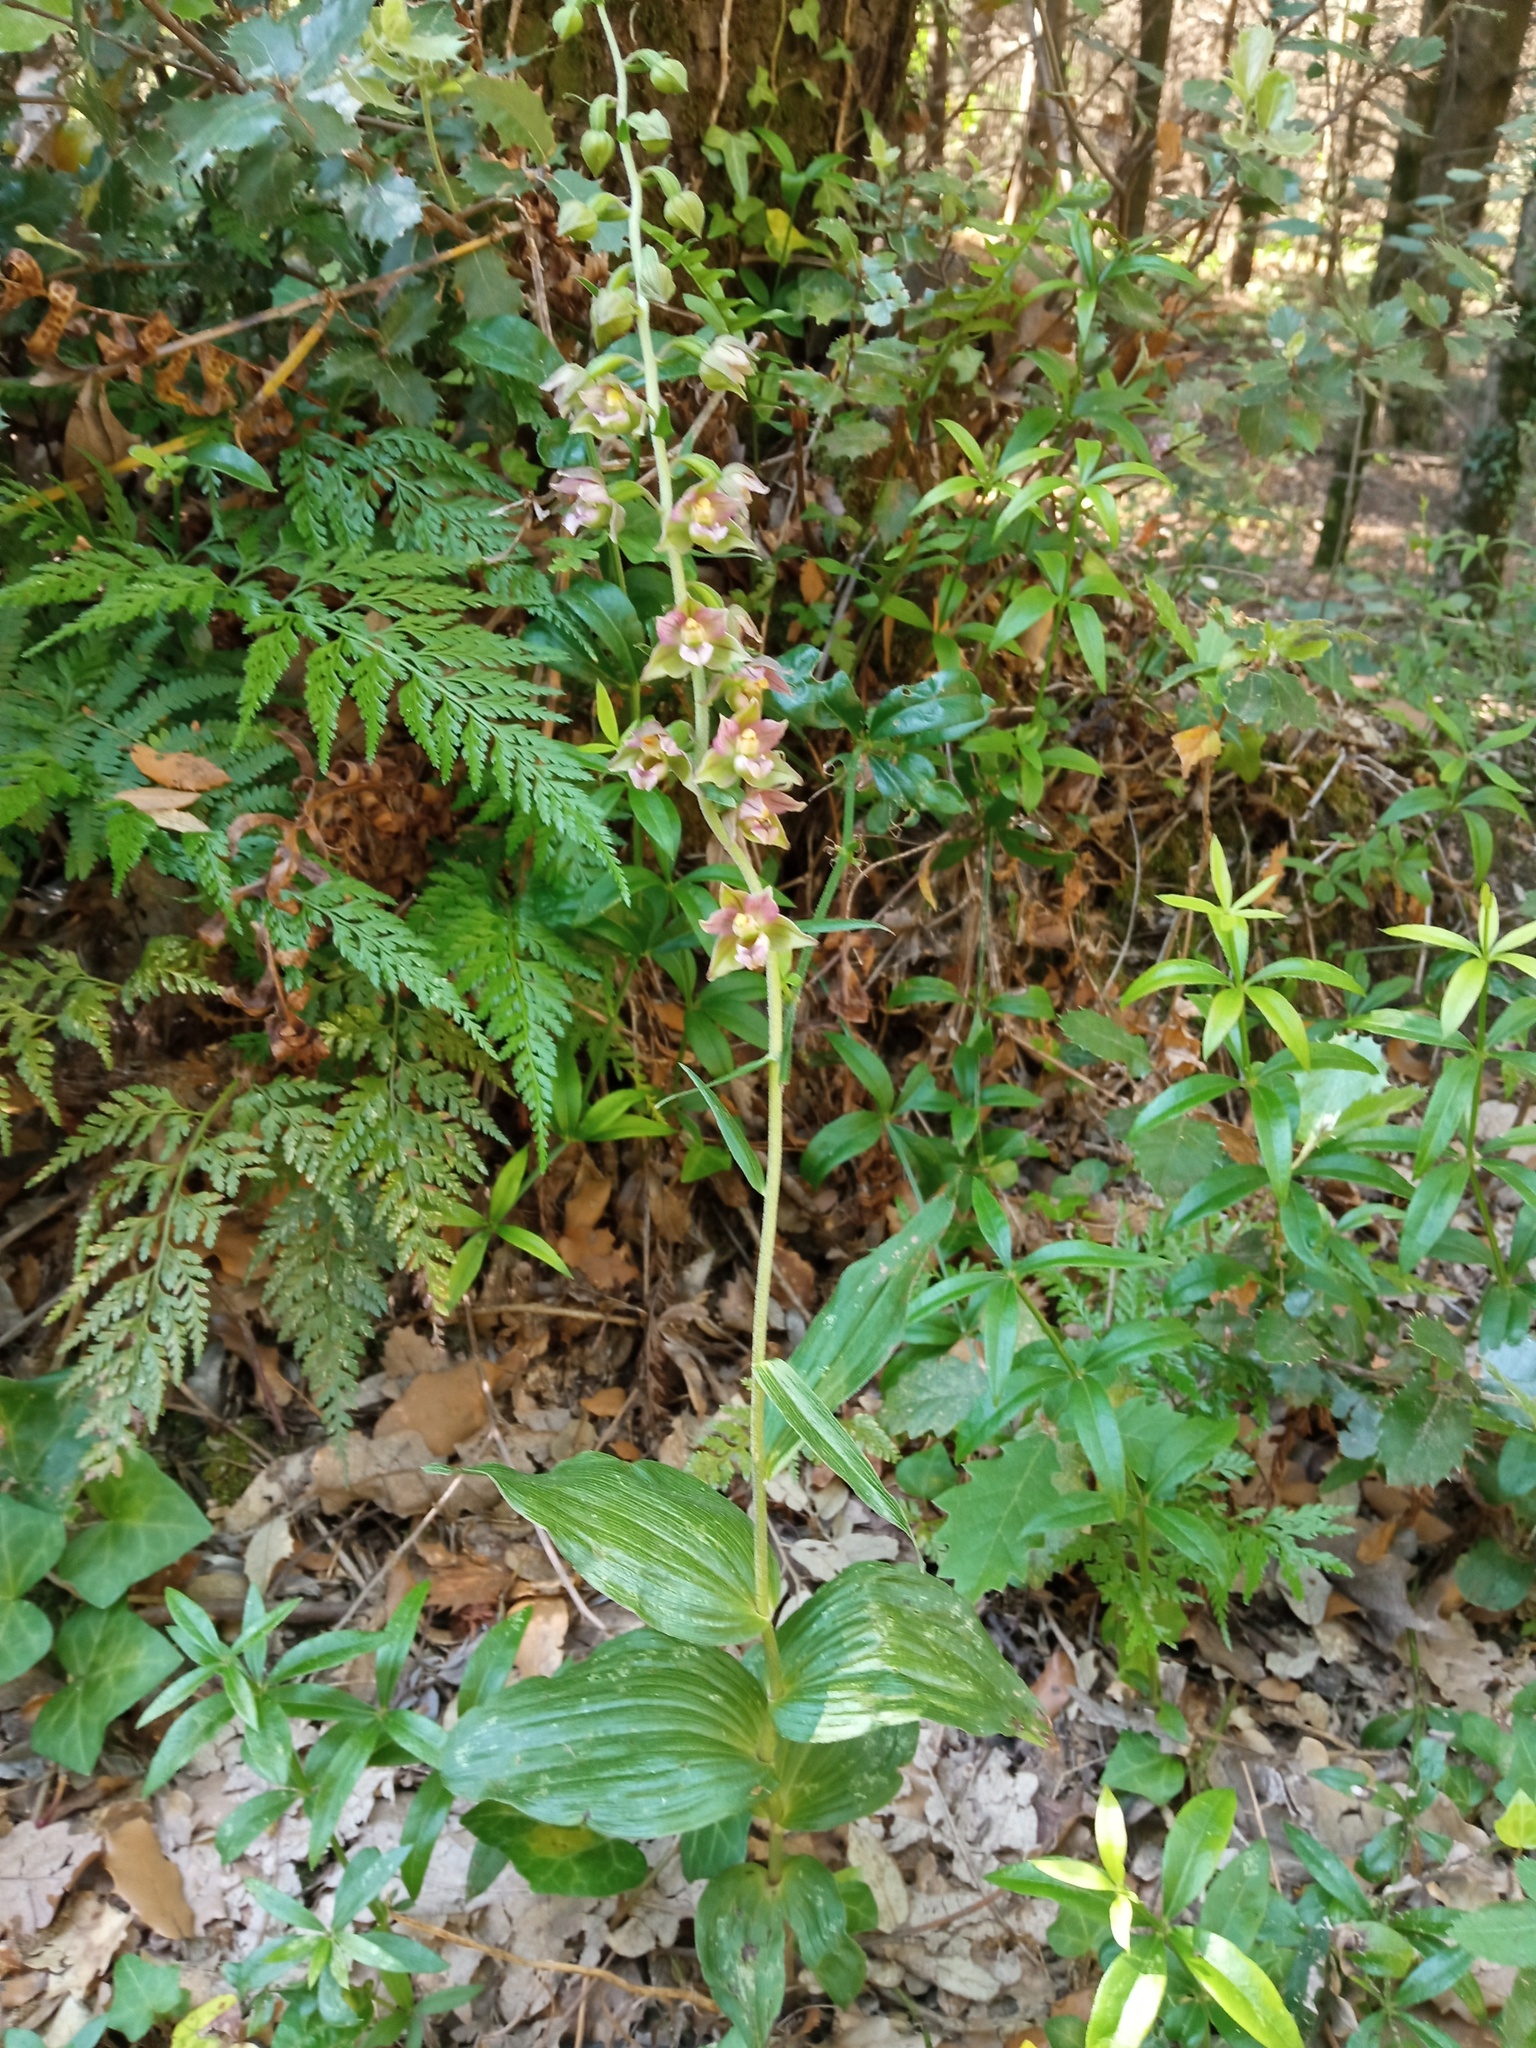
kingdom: Plantae
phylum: Tracheophyta
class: Liliopsida
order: Asparagales
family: Orchidaceae
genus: Epipactis
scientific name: Epipactis helleborine
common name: Broad-leaved helleborine
